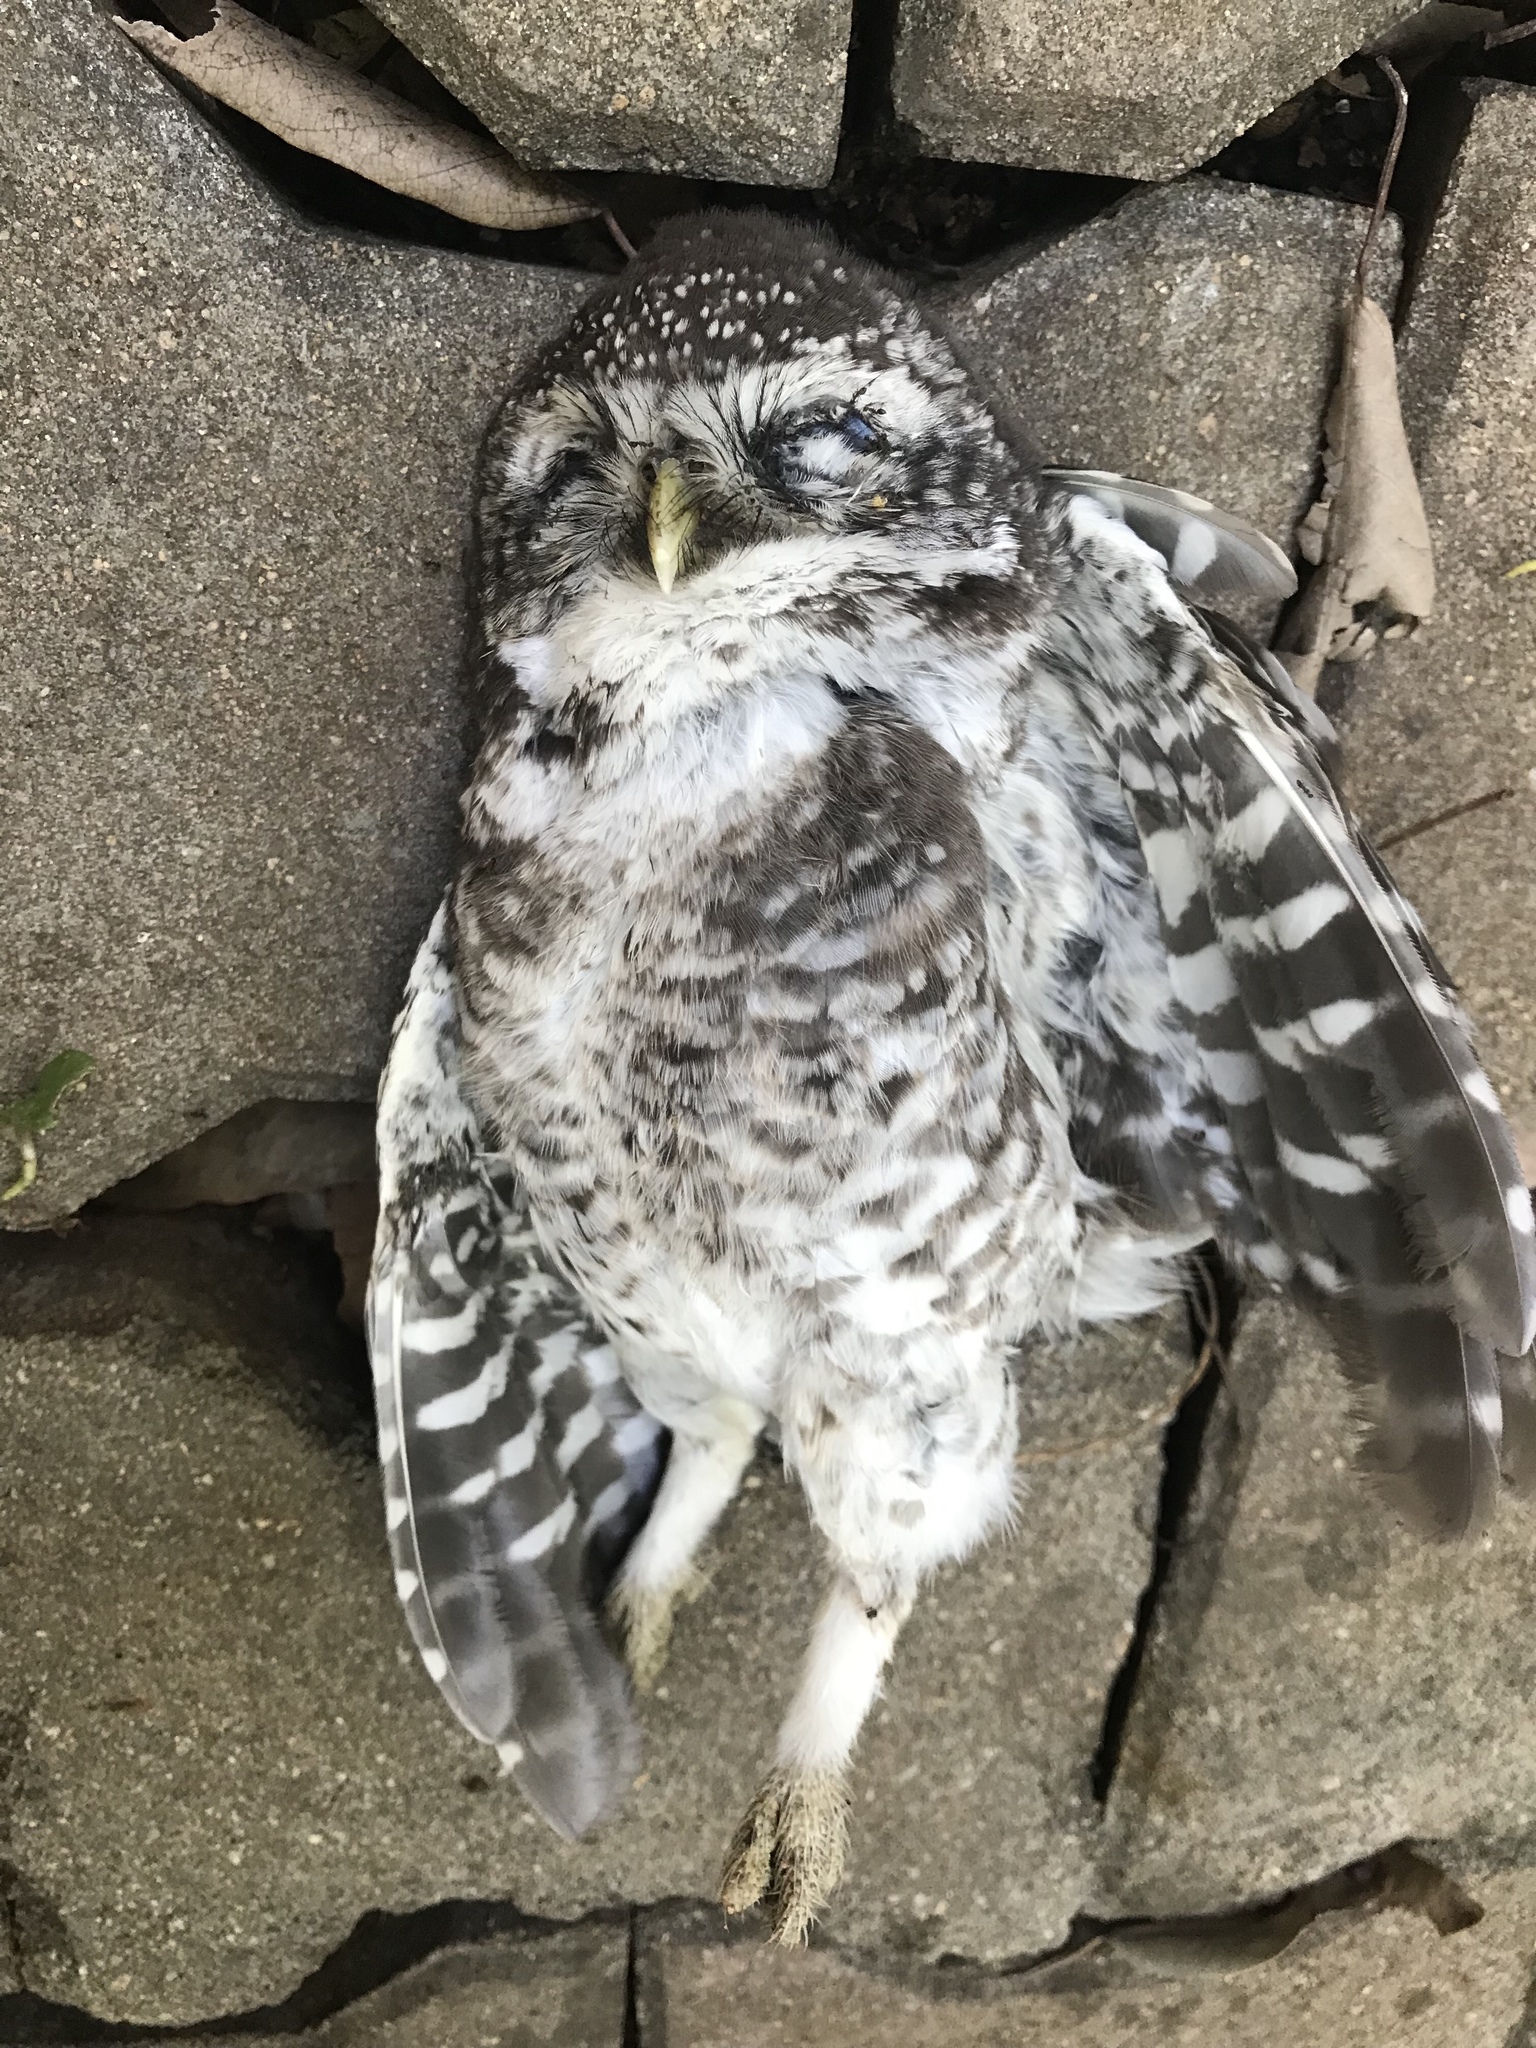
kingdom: Animalia
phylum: Chordata
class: Aves
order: Strigiformes
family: Strigidae
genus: Athene
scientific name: Athene brama
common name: Spotted owlet
